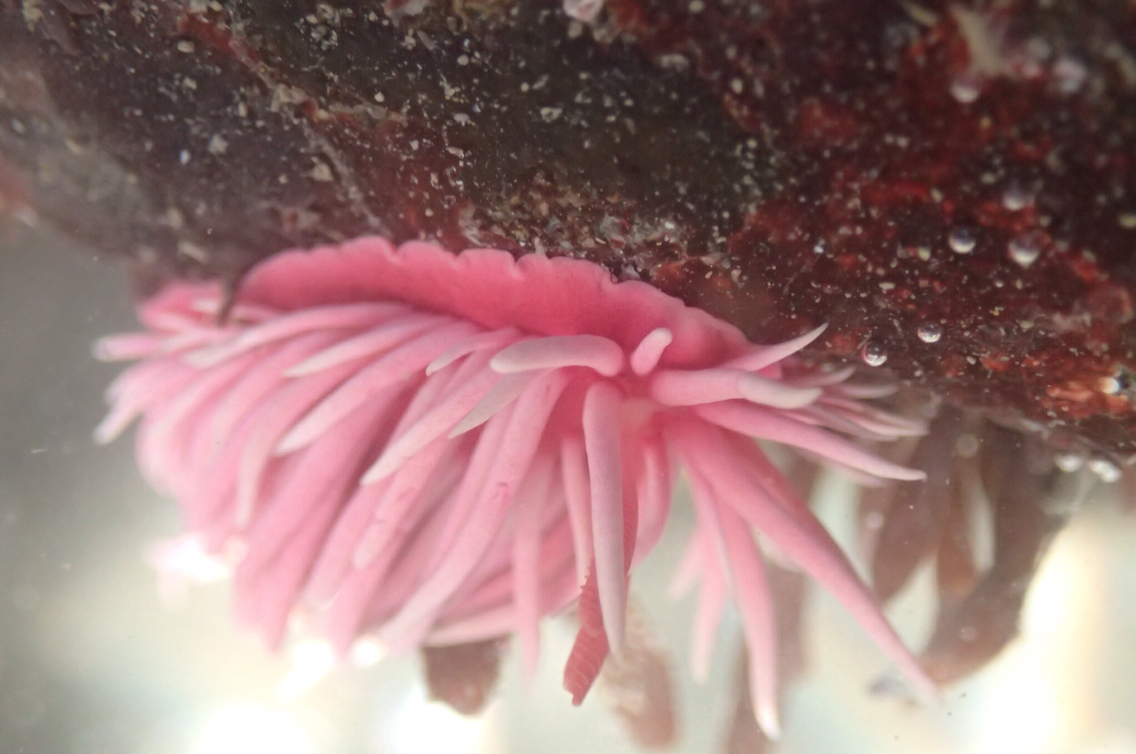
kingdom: Animalia
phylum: Mollusca
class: Gastropoda
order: Nudibranchia
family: Goniodorididae
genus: Okenia
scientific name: Okenia
